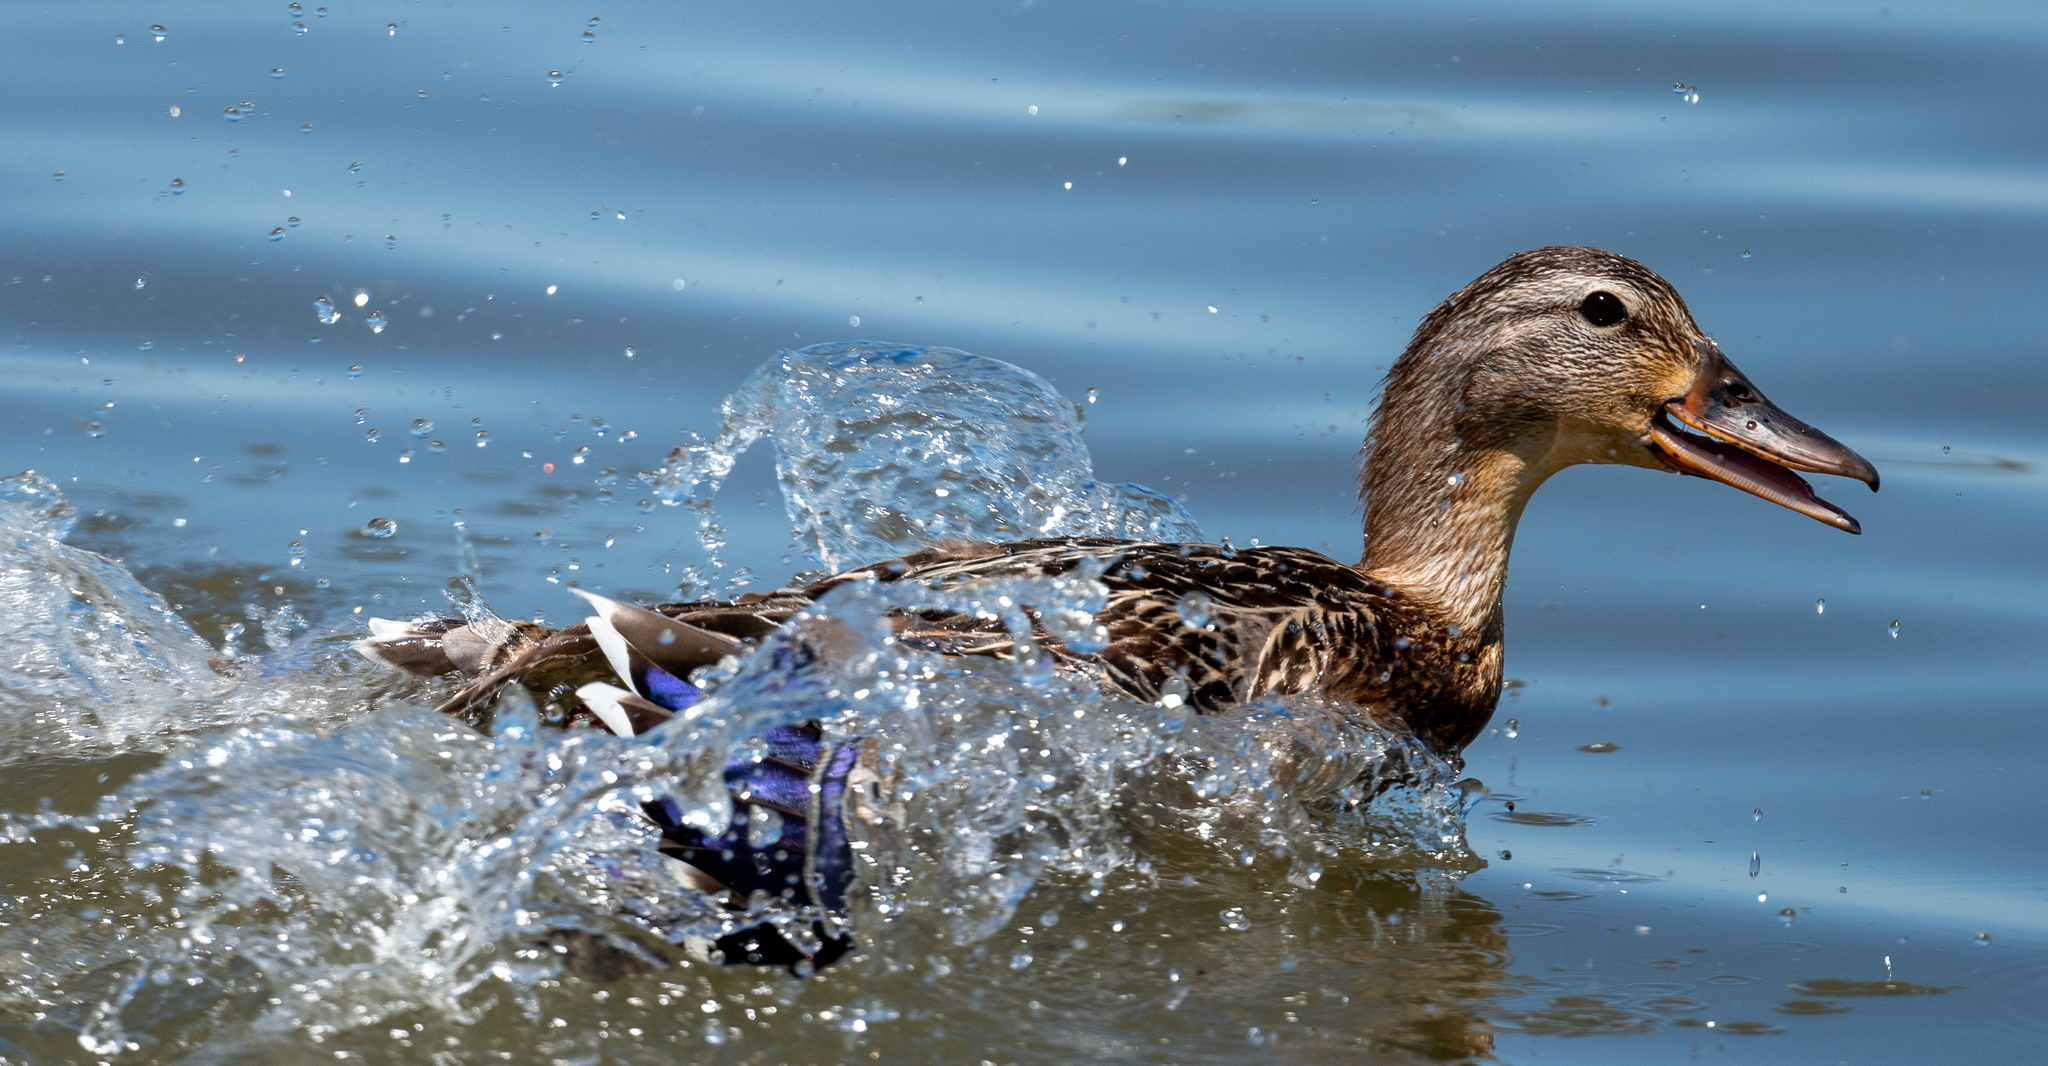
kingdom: Animalia
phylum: Chordata
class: Aves
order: Anseriformes
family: Anatidae
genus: Anas
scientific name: Anas platyrhynchos
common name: Mallard
